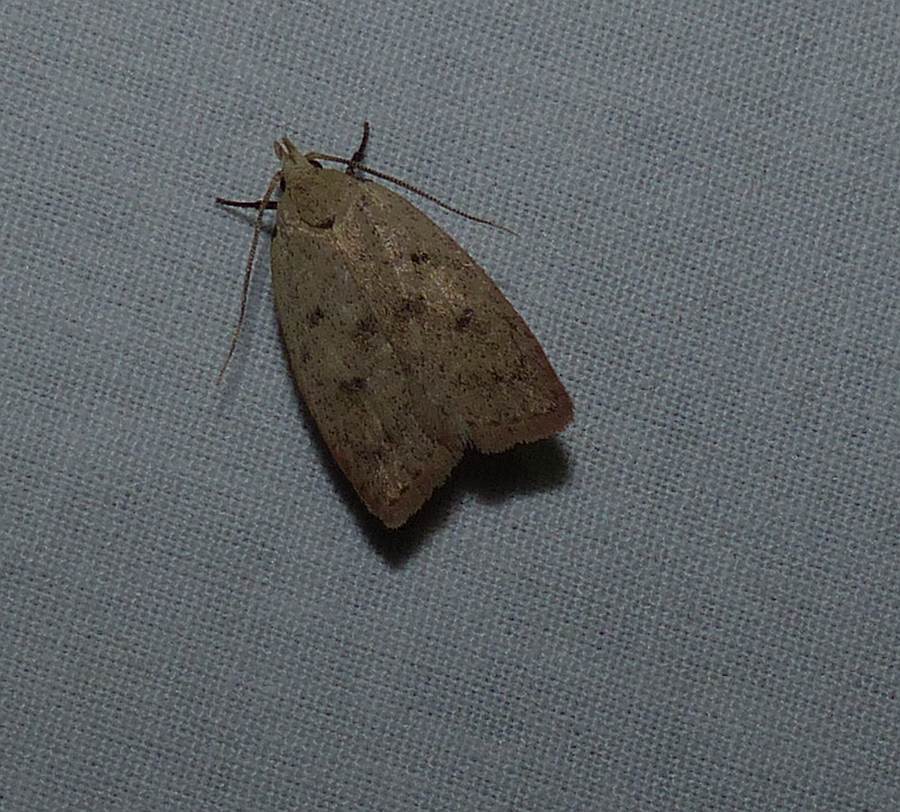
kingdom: Animalia
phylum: Arthropoda
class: Insecta
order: Lepidoptera
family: Peleopodidae
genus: Machimia
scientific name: Machimia tentoriferella
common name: Gold-striped leaftier moth
